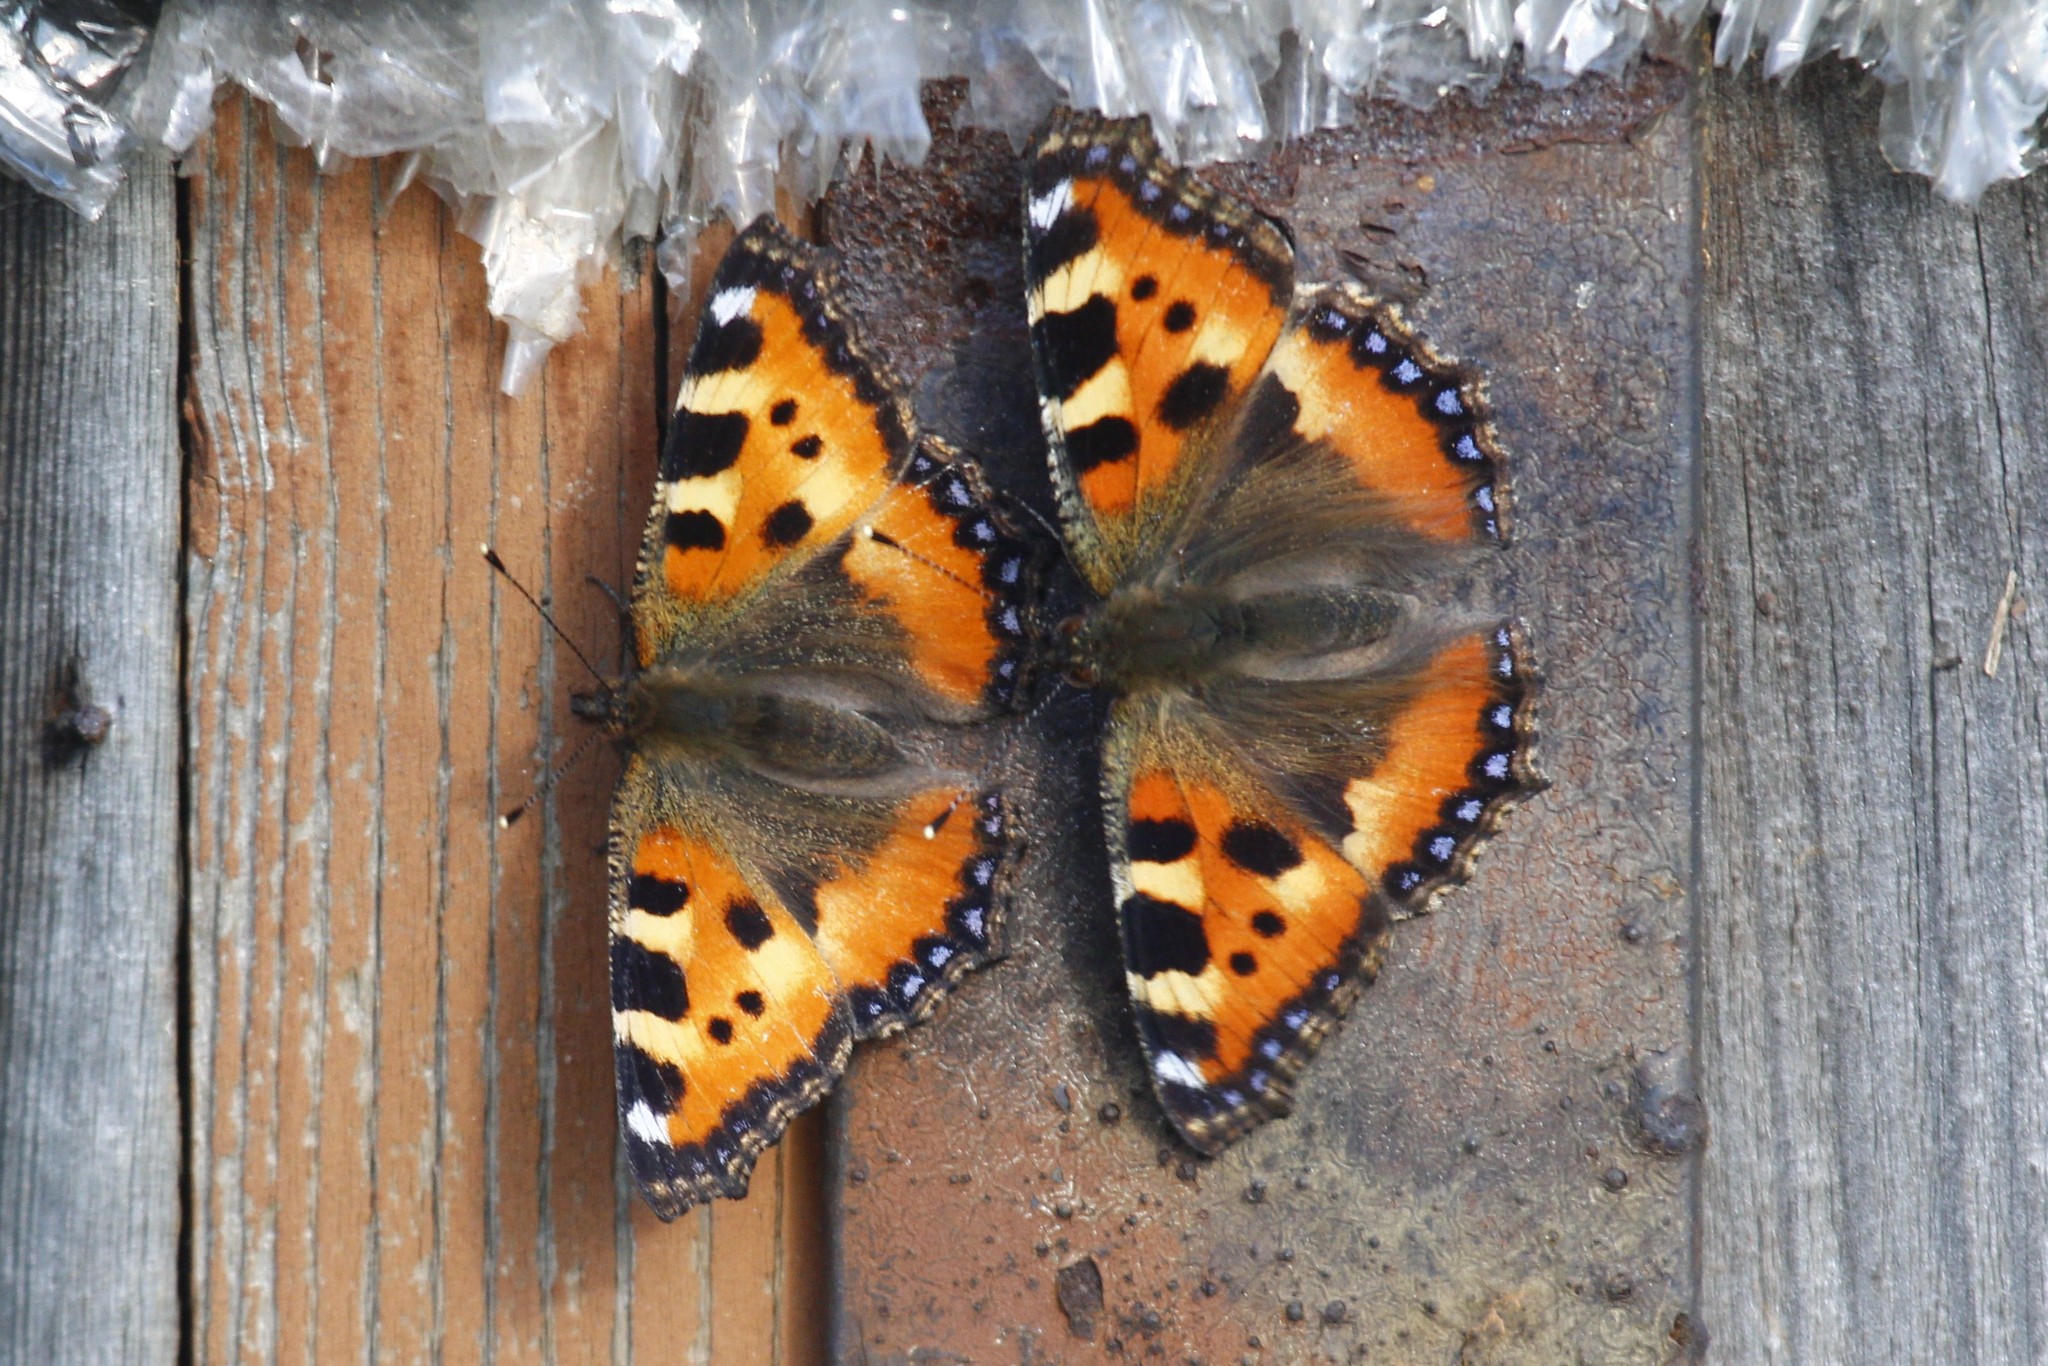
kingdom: Animalia
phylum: Arthropoda
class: Insecta
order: Lepidoptera
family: Nymphalidae
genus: Aglais
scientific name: Aglais urticae
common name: Small tortoiseshell
